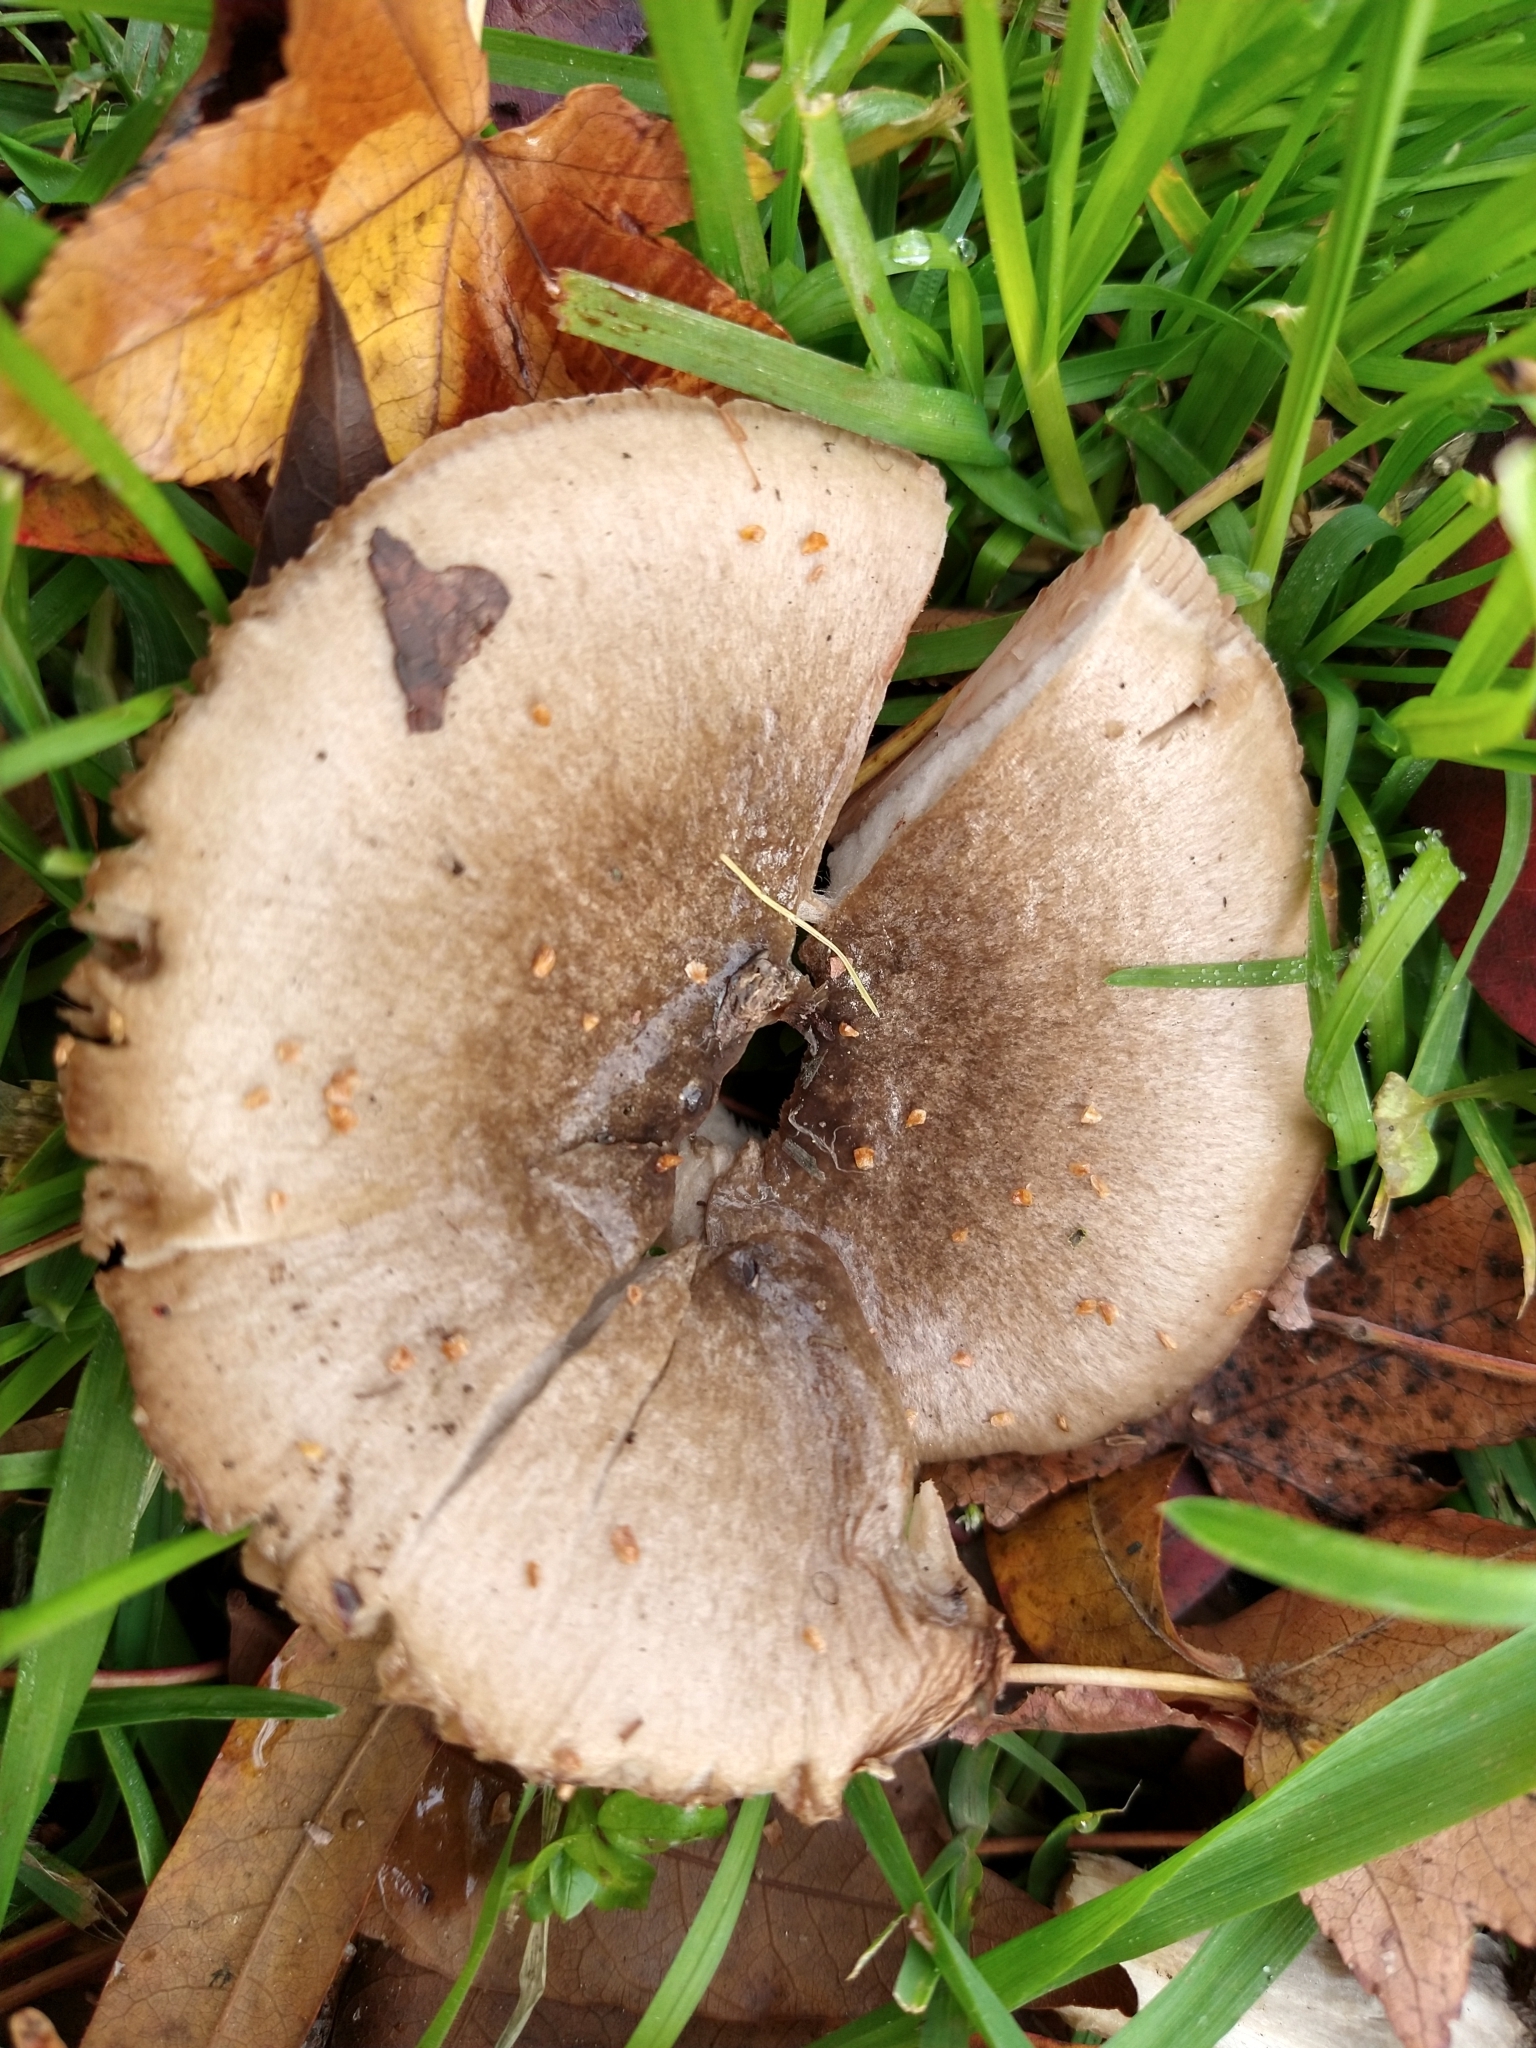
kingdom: Fungi
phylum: Basidiomycota
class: Agaricomycetes
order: Agaricales
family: Pluteaceae
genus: Volvopluteus
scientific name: Volvopluteus gloiocephalus
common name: Stubble rosegill
